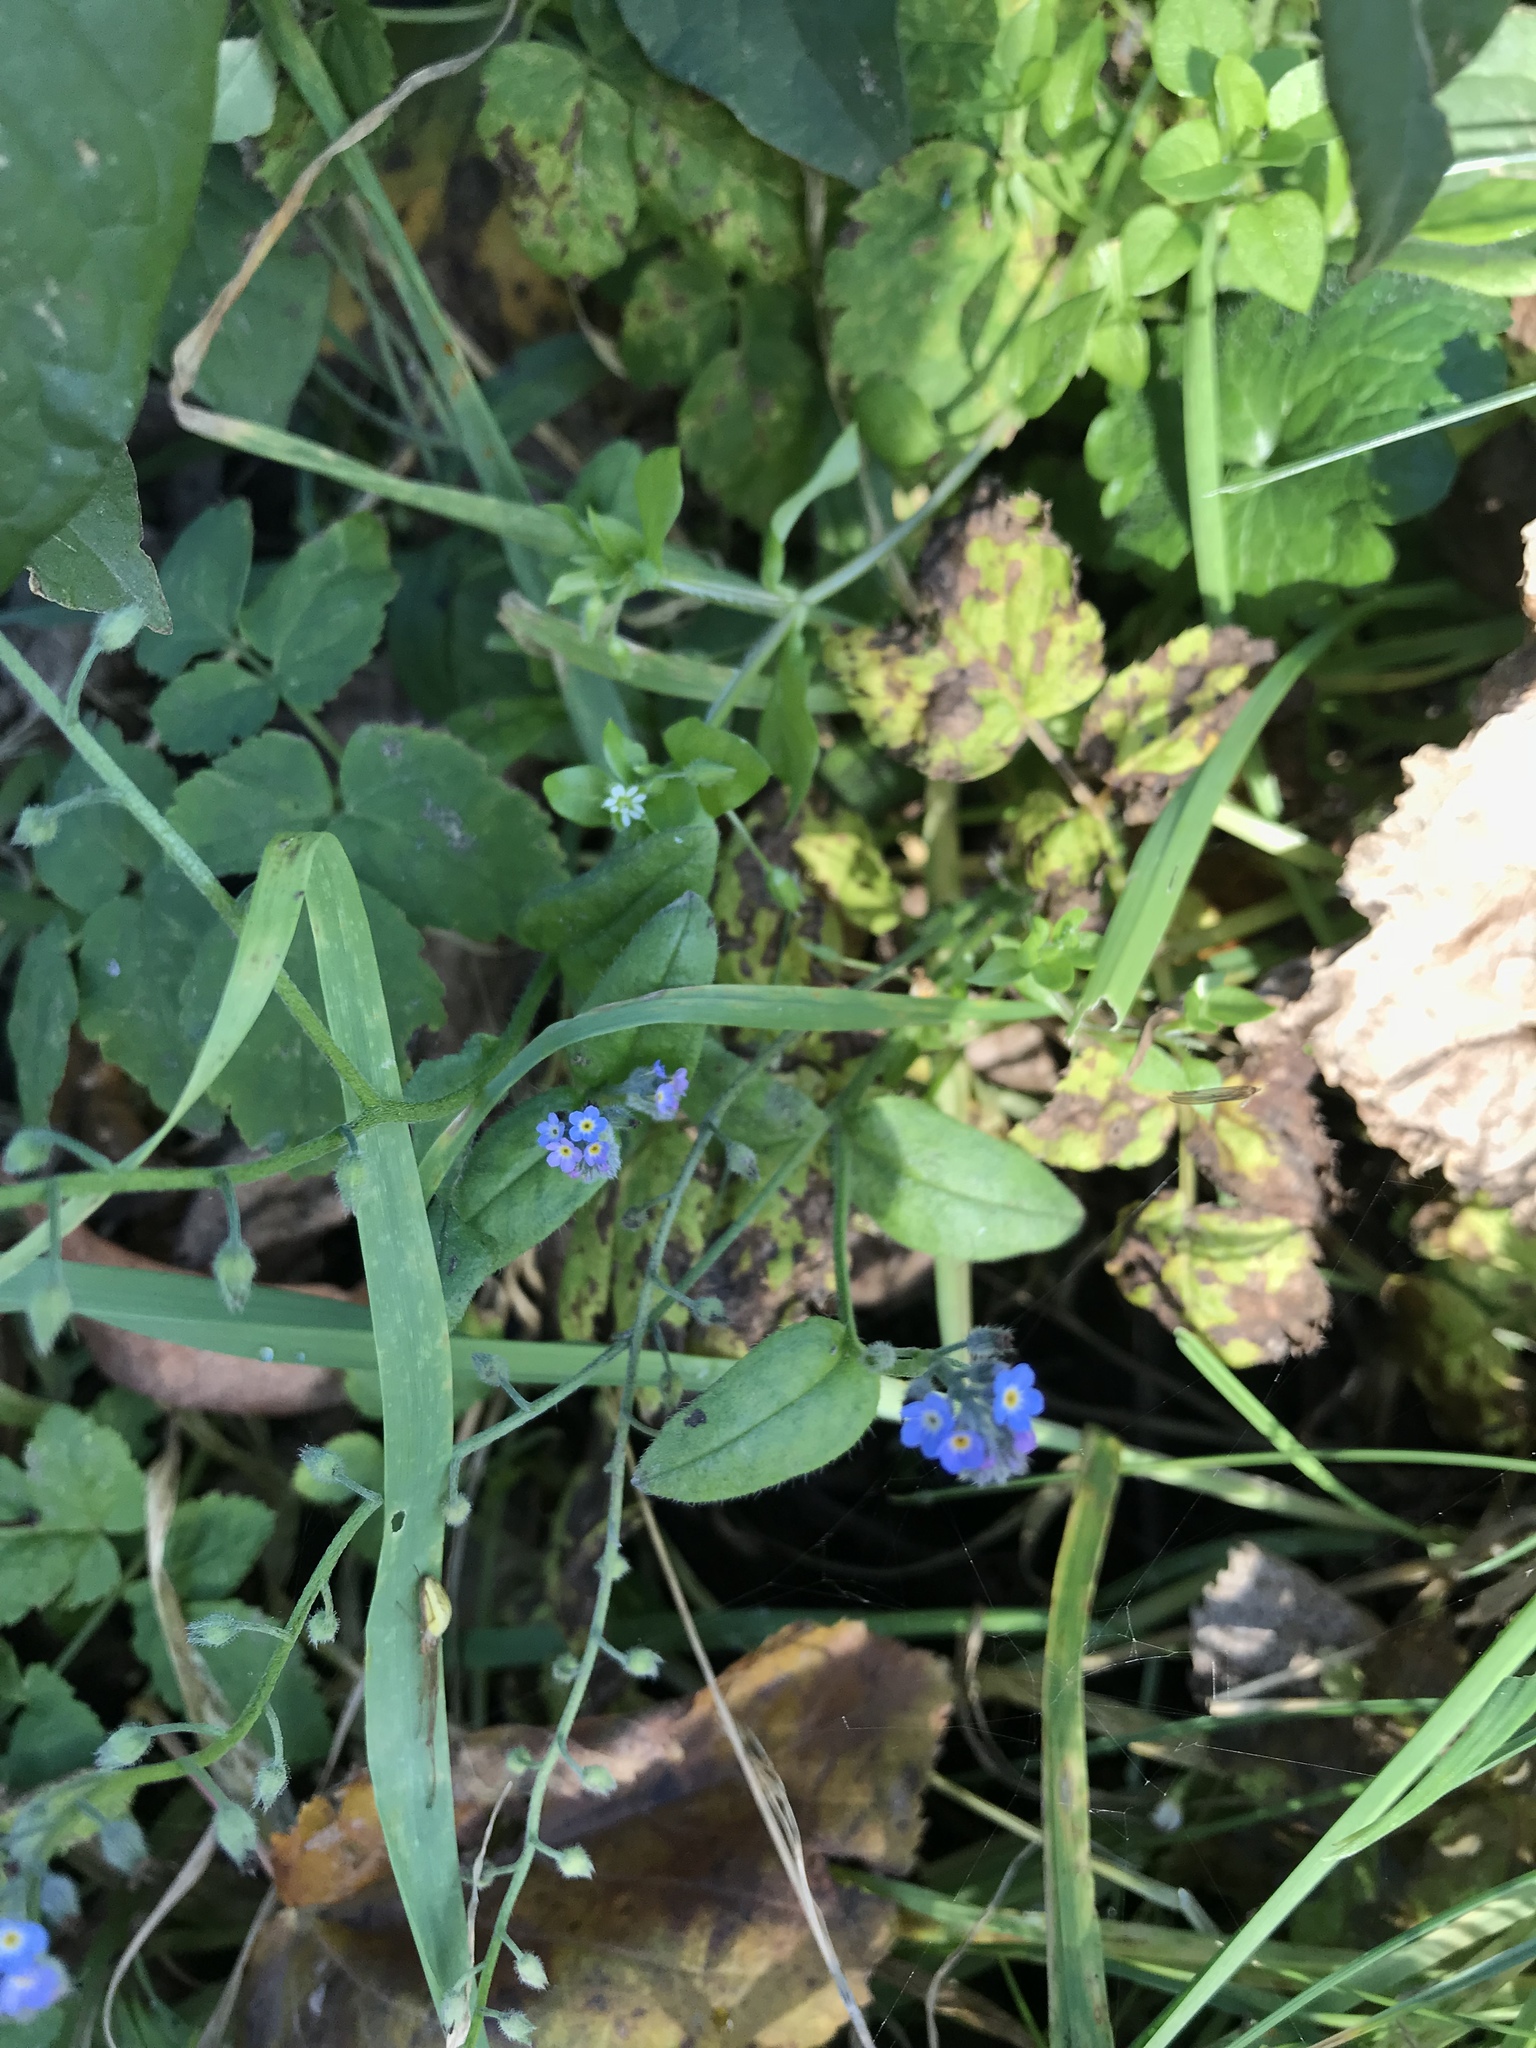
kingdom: Plantae
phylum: Tracheophyta
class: Magnoliopsida
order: Boraginales
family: Boraginaceae
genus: Myosotis
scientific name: Myosotis arvensis
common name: Field forget-me-not
